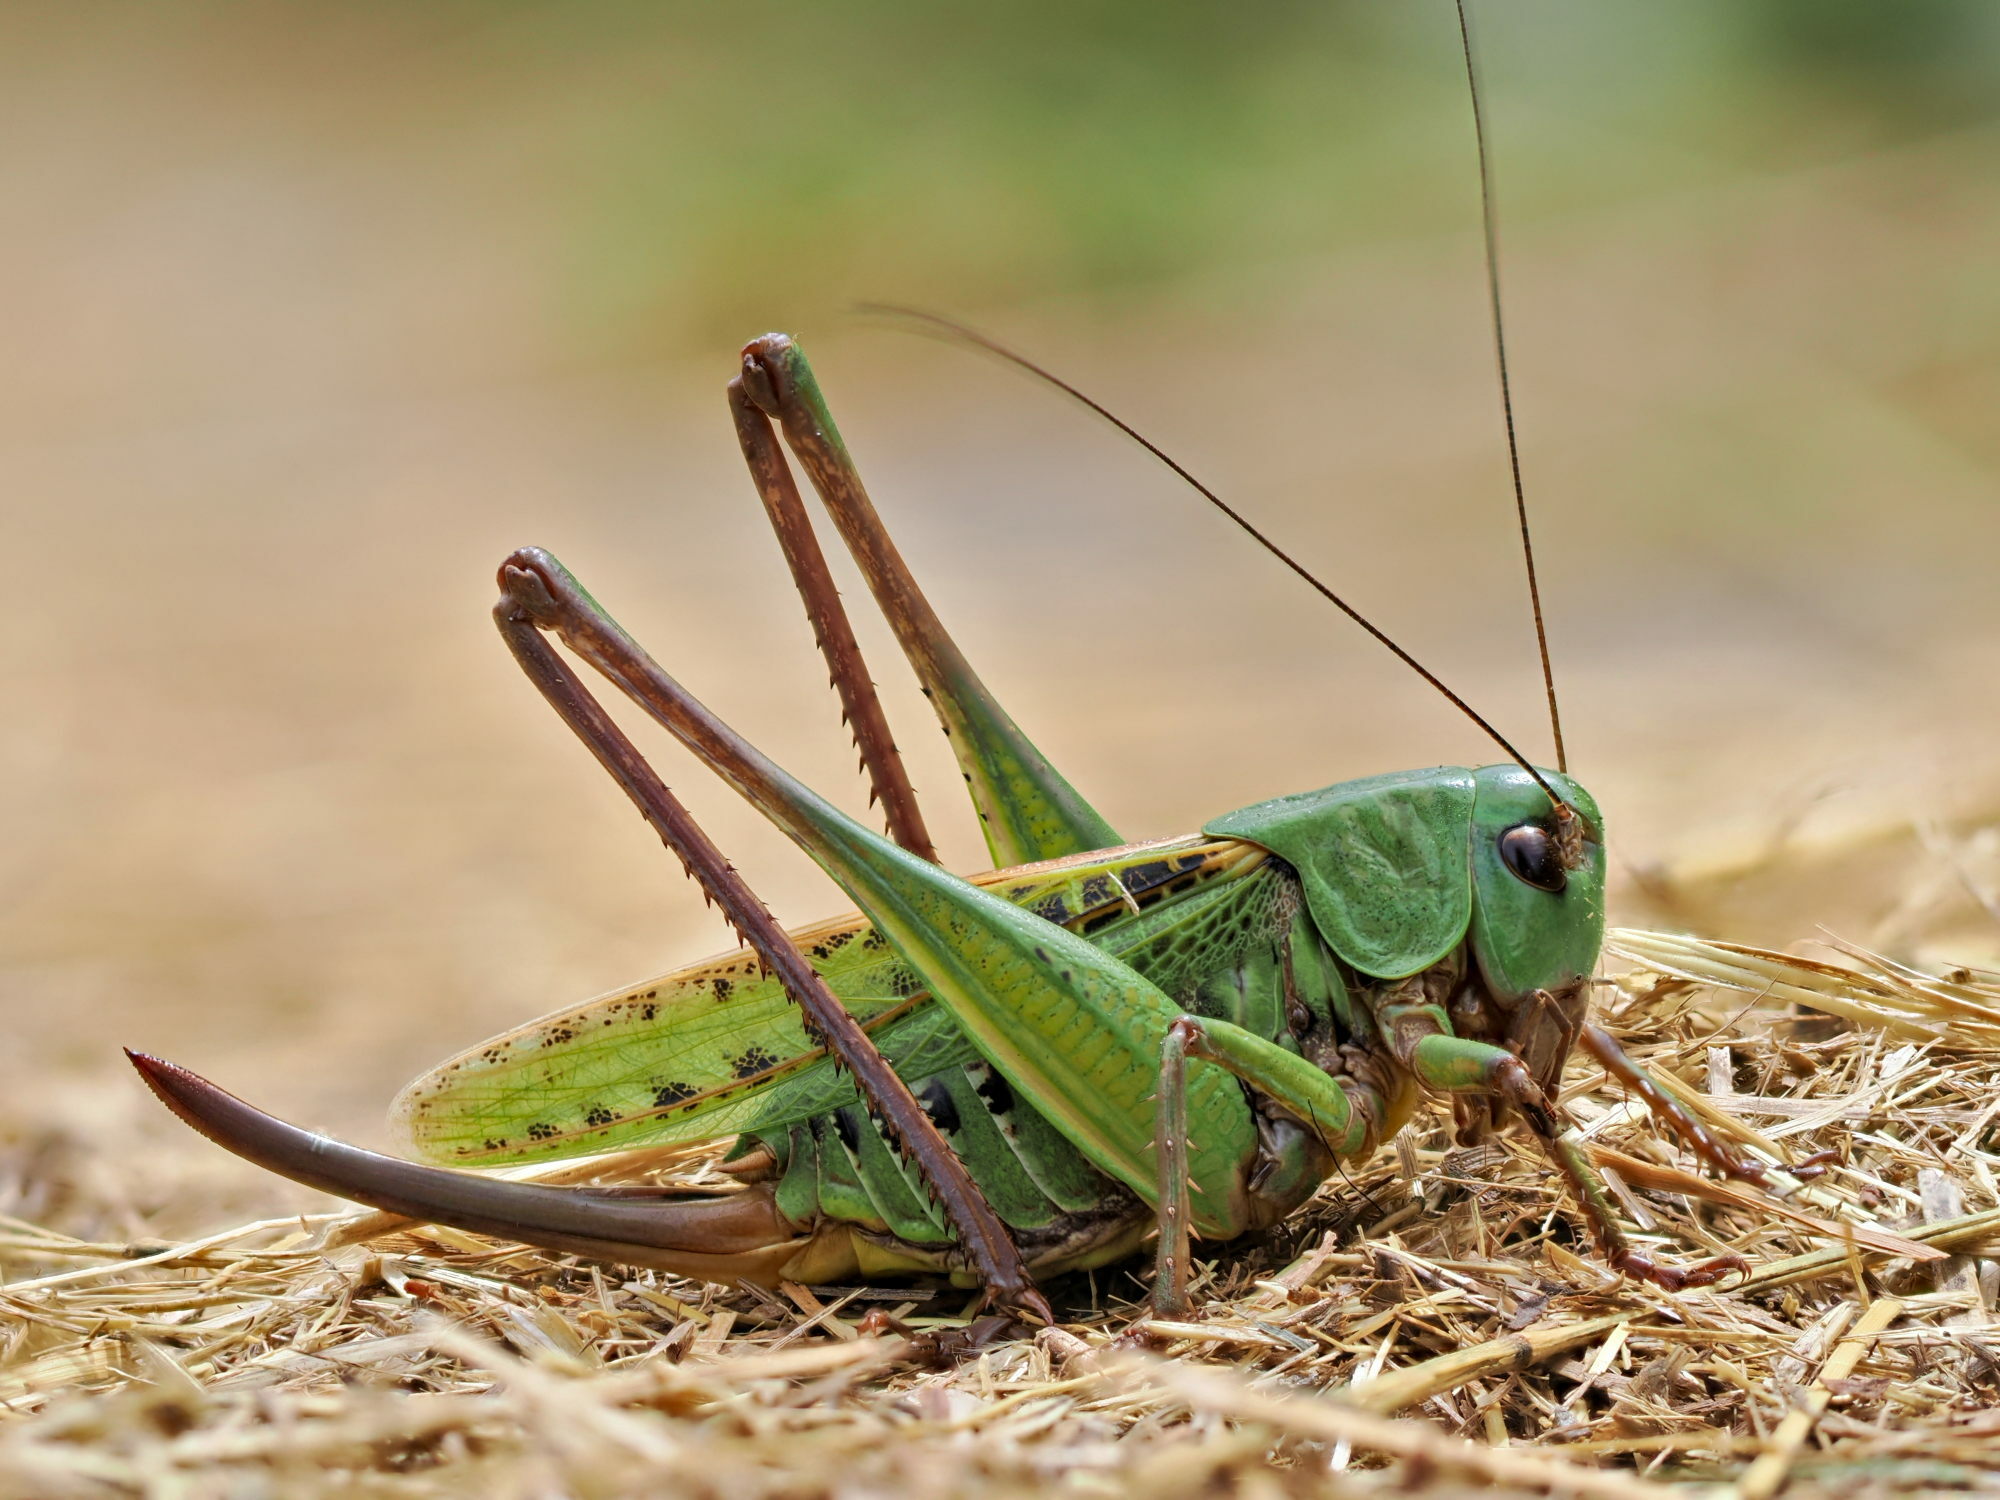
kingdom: Animalia
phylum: Arthropoda
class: Insecta
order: Orthoptera
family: Tettigoniidae
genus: Decticus
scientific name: Decticus verrucivorus
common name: Wart-biter
